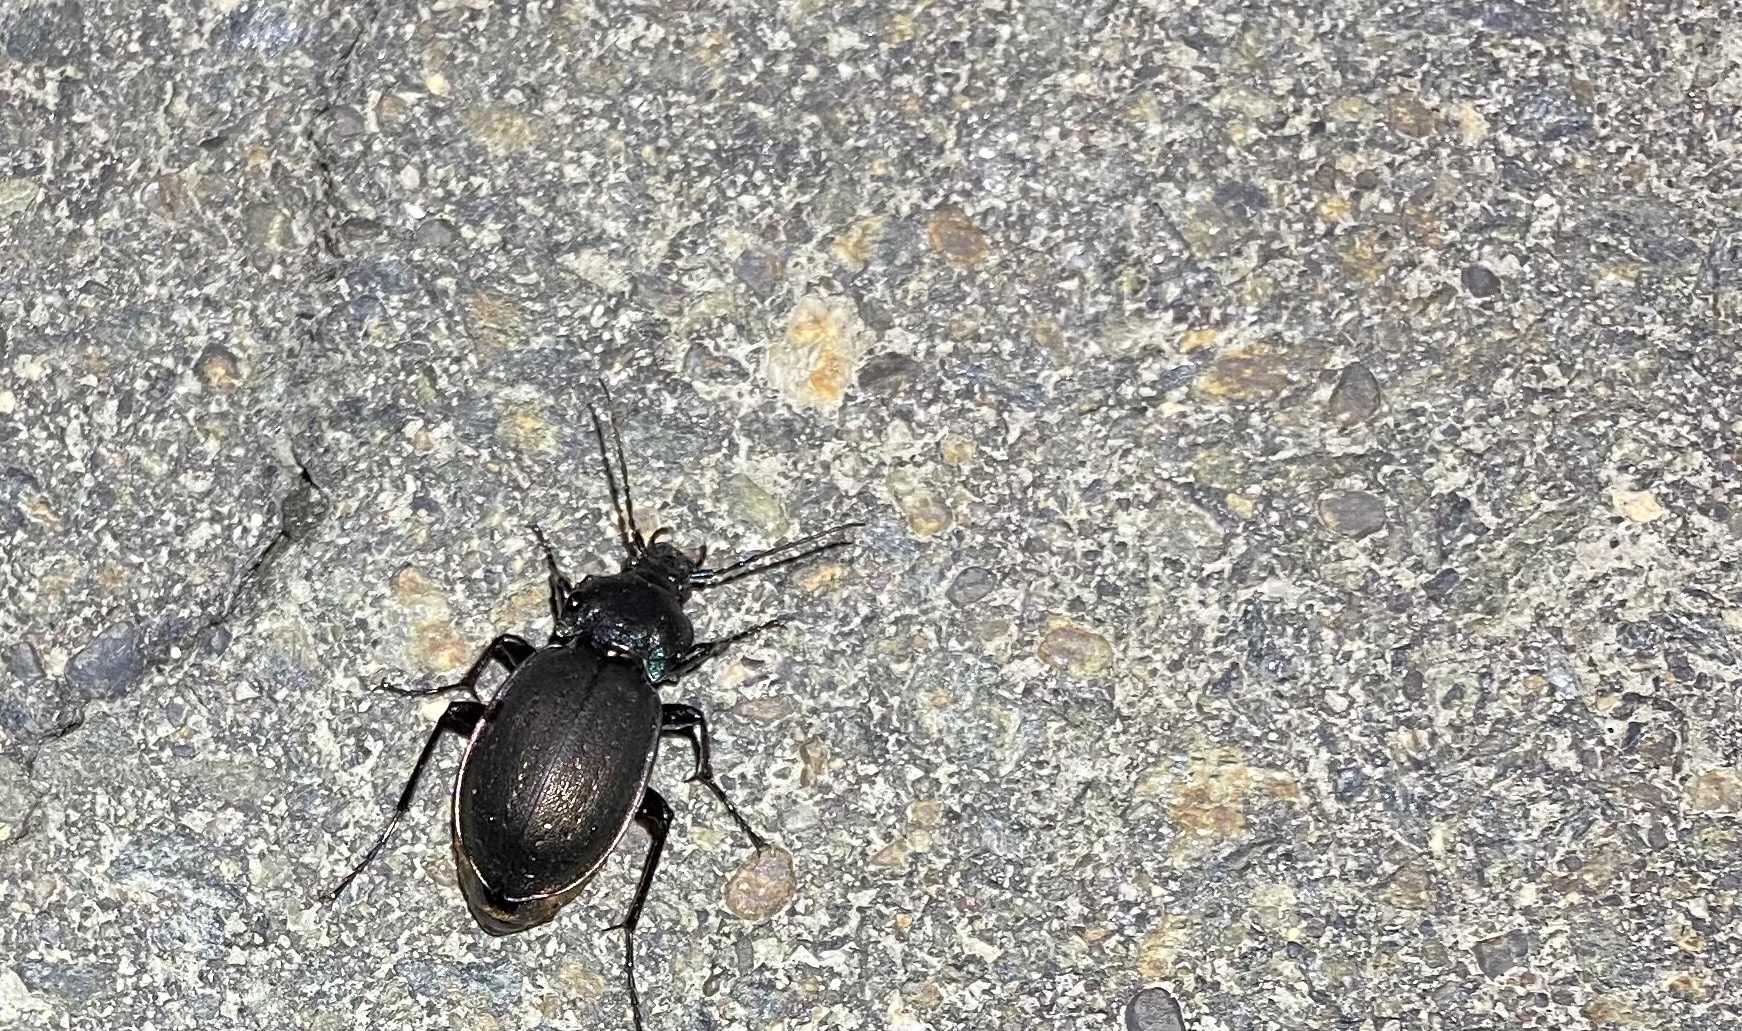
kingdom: Animalia
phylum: Arthropoda
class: Insecta
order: Coleoptera
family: Carabidae
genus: Carabus
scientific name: Carabus nemoralis
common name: European ground beetle
